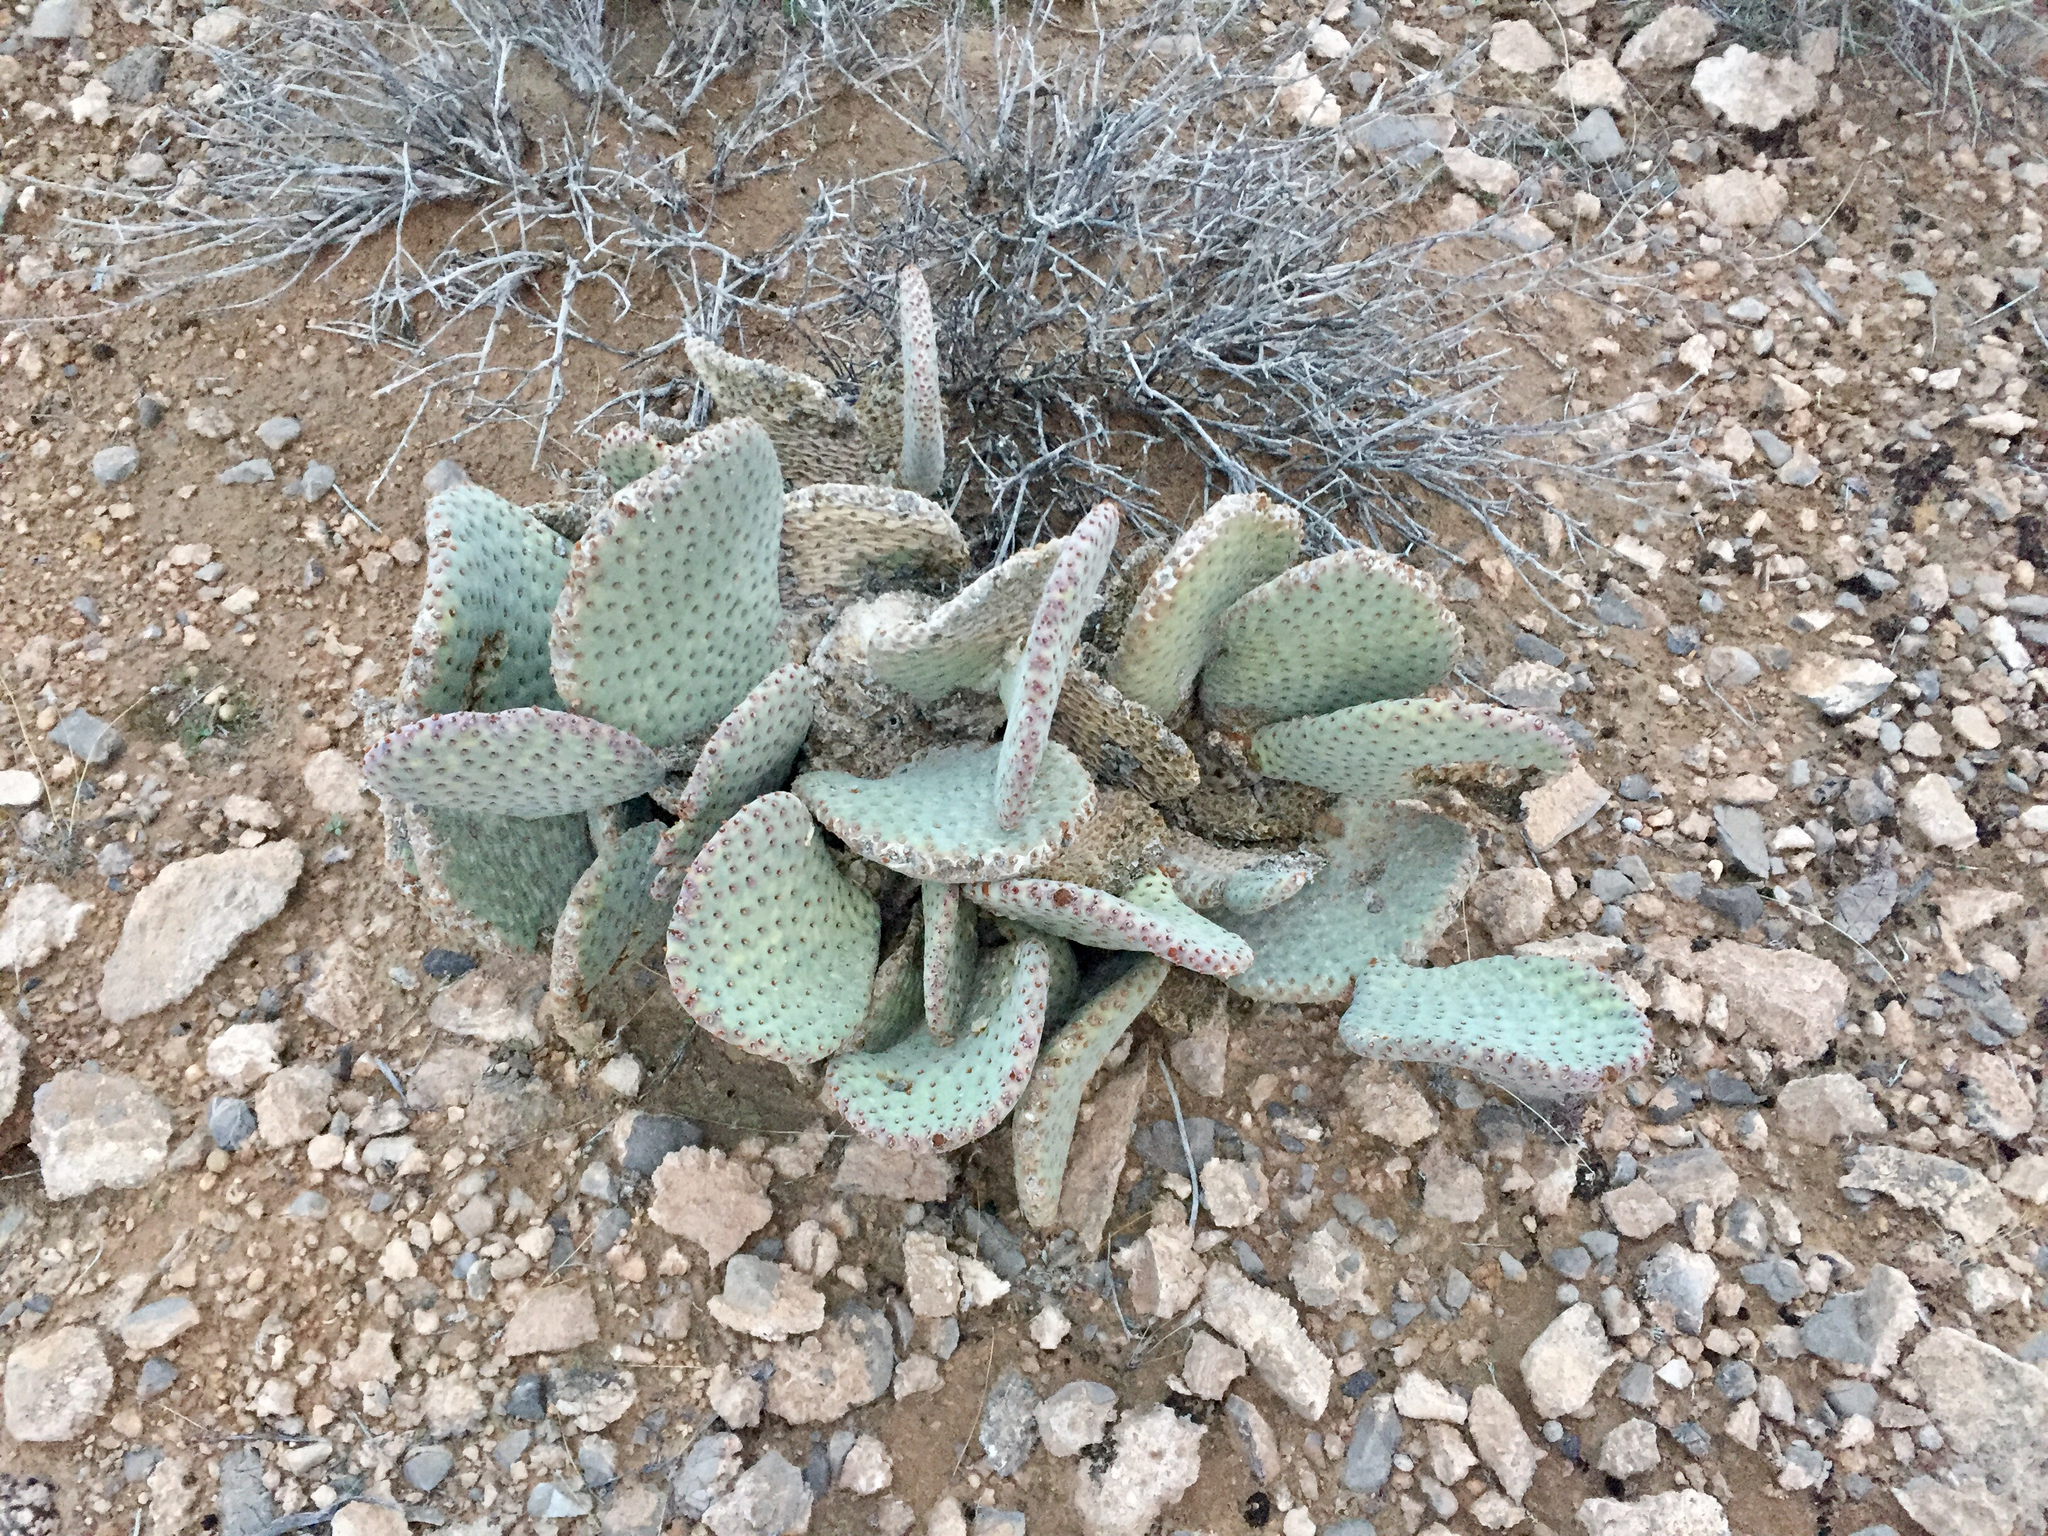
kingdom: Plantae
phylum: Tracheophyta
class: Magnoliopsida
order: Caryophyllales
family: Cactaceae
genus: Opuntia
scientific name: Opuntia basilaris
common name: Beavertail prickly-pear
